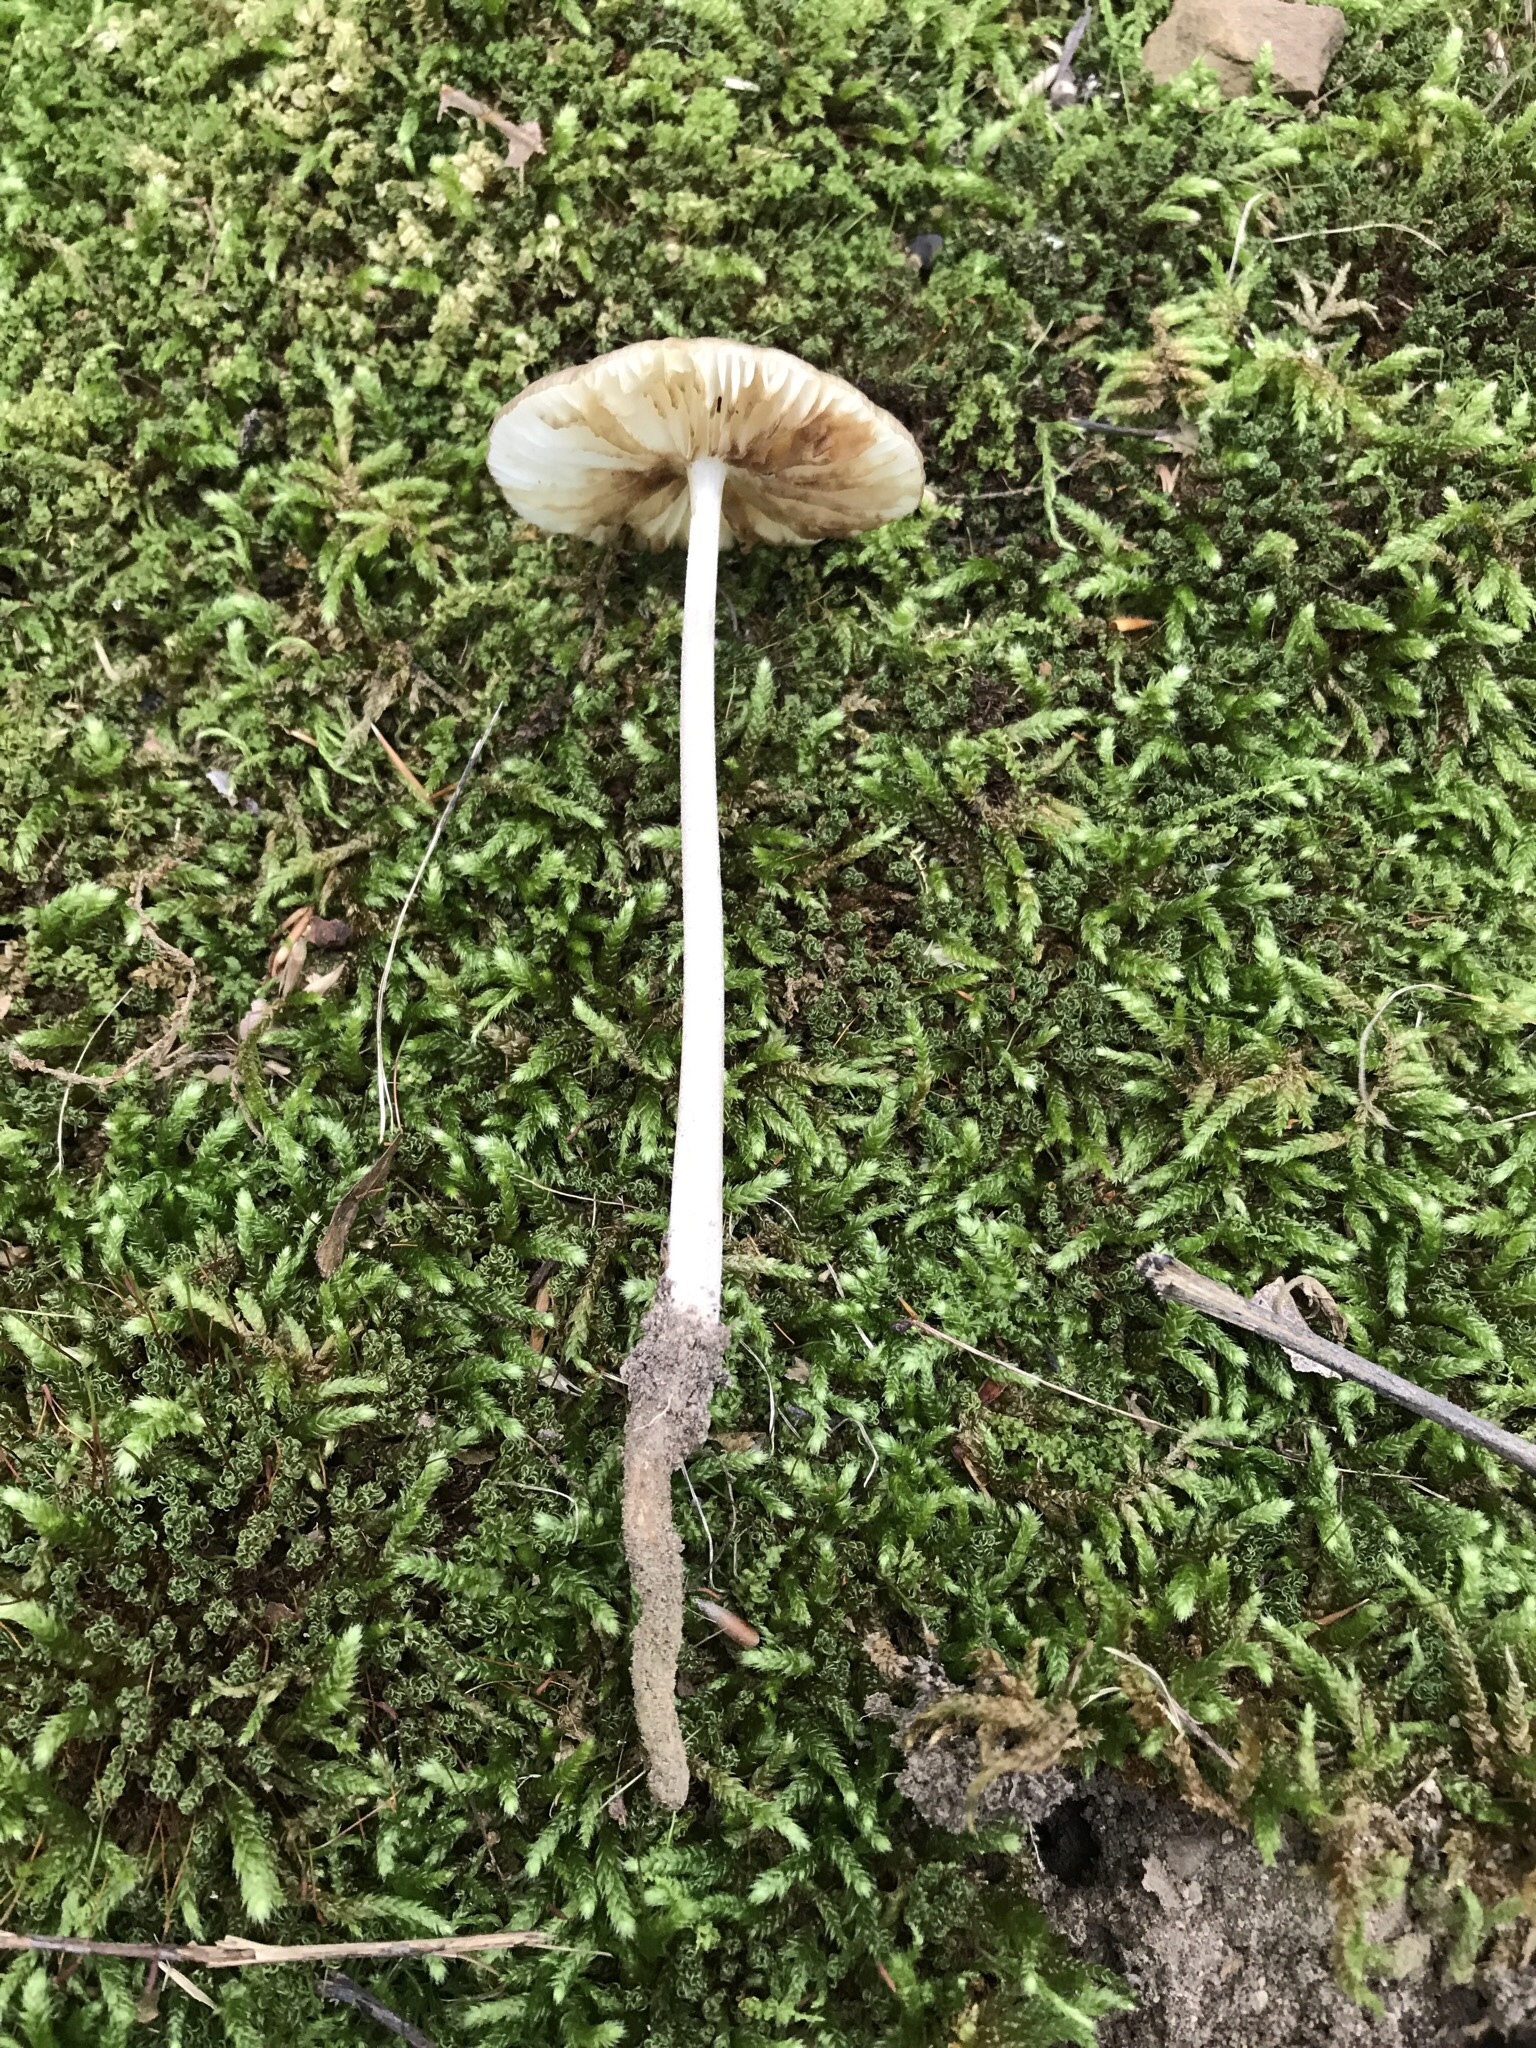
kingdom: Fungi
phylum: Basidiomycota
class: Agaricomycetes
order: Agaricales
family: Physalacriaceae
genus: Hymenopellis
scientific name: Hymenopellis furfuracea
